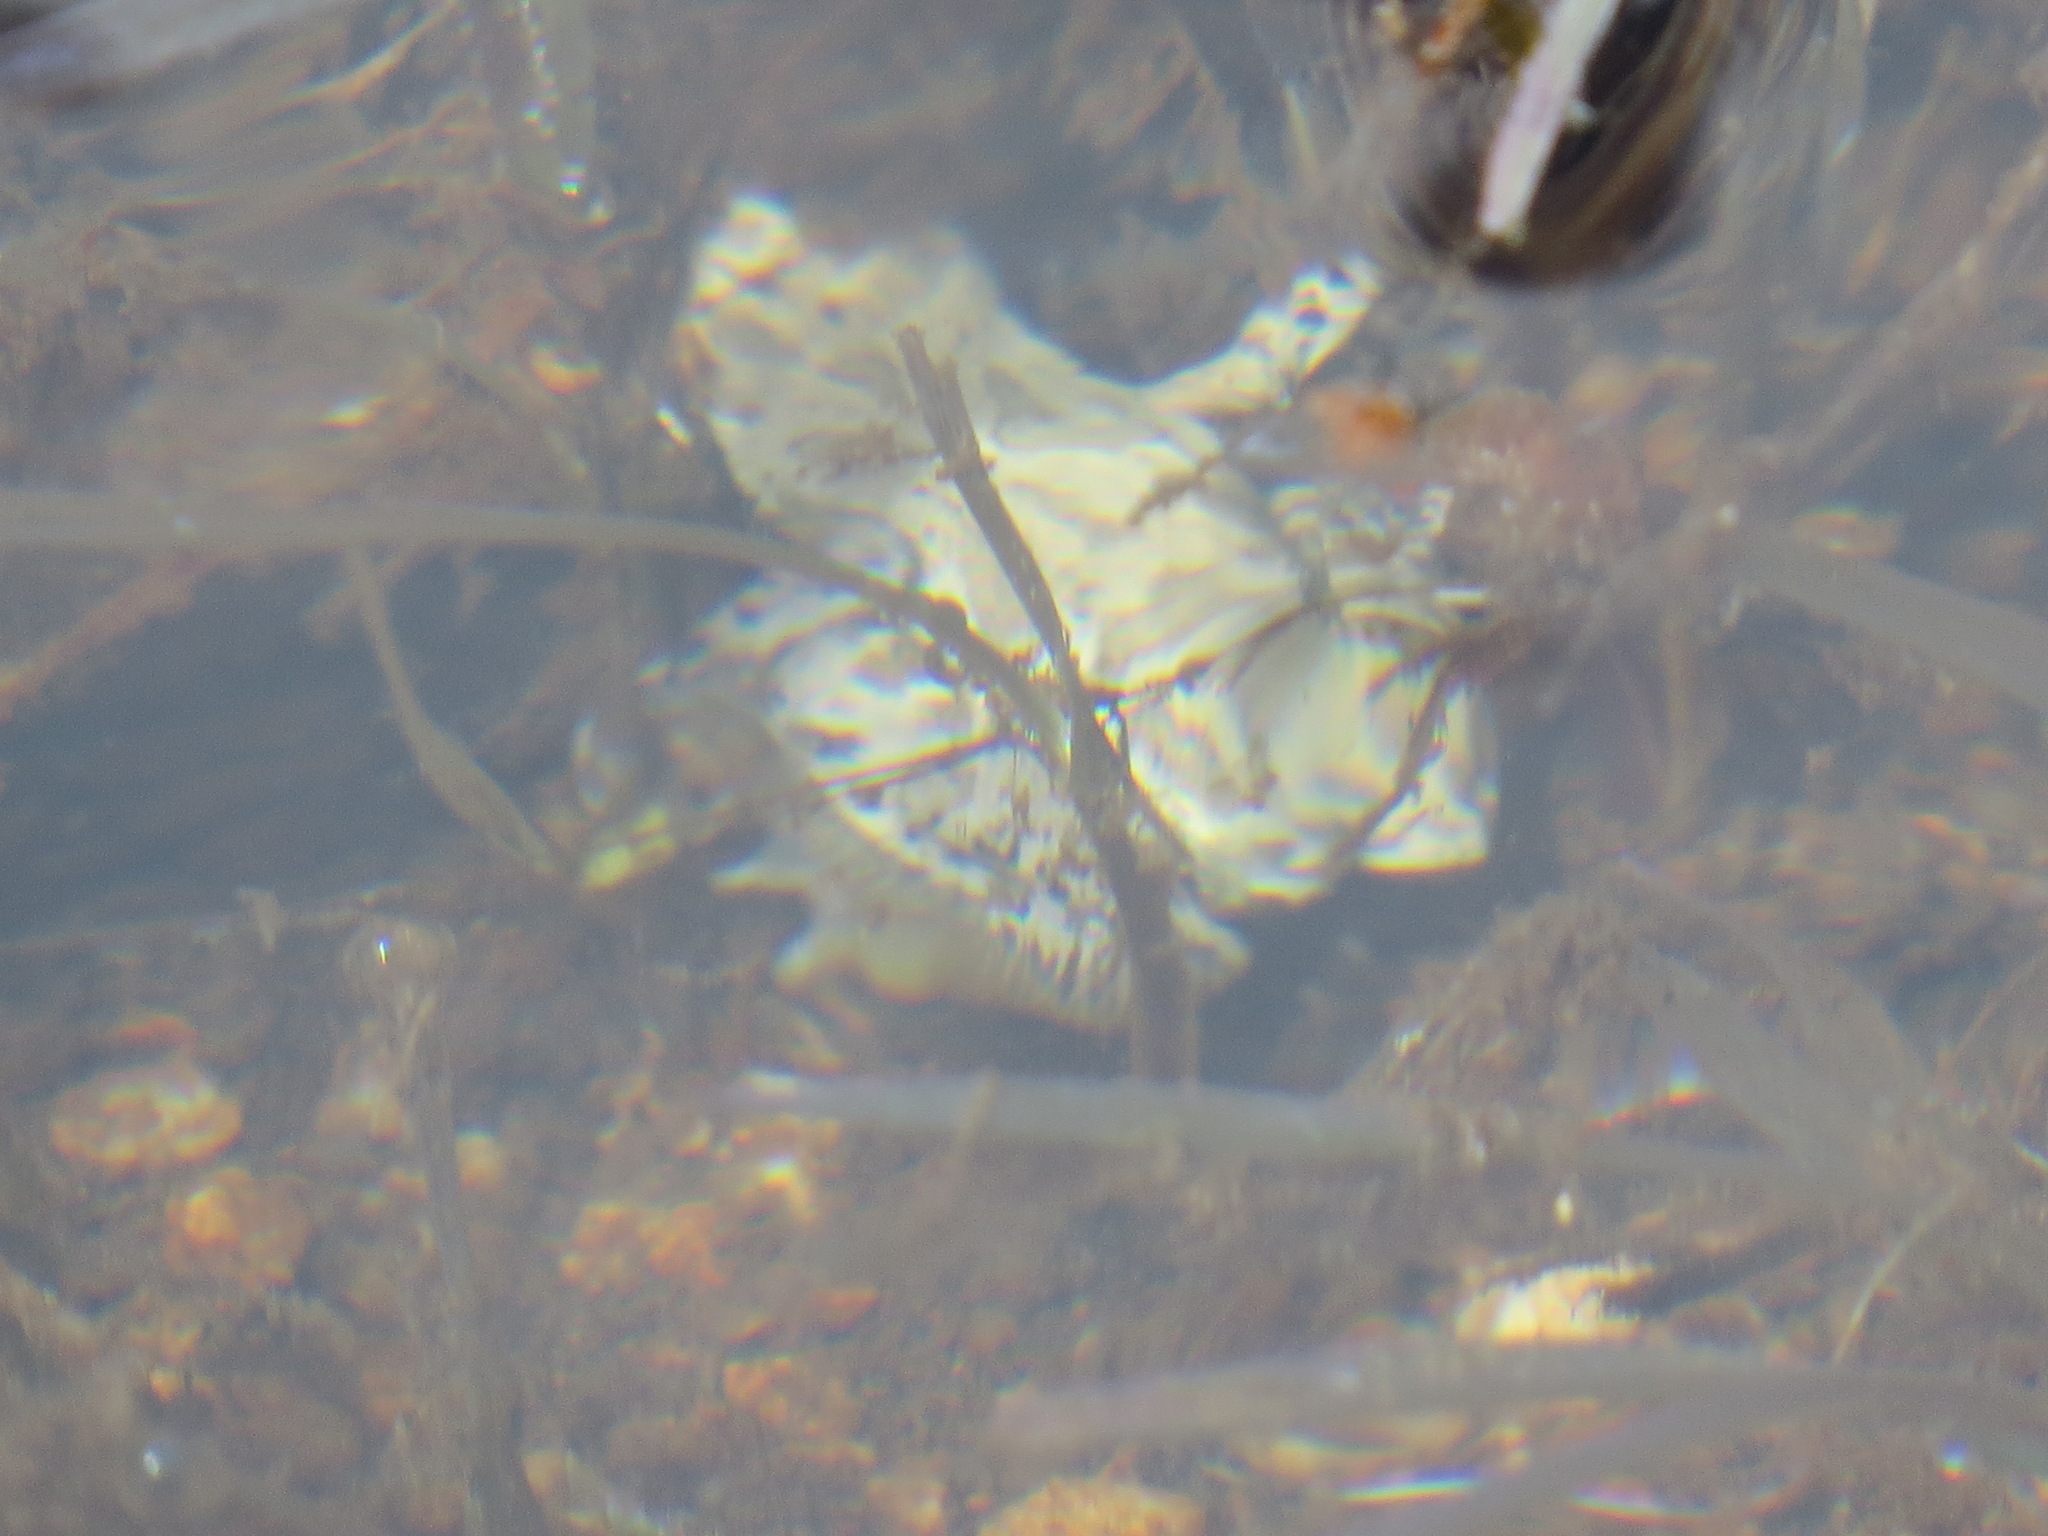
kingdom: Animalia
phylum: Chordata
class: Amphibia
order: Anura
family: Hylidae
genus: Pseudacris
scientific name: Pseudacris regilla
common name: Pacific chorus frog
